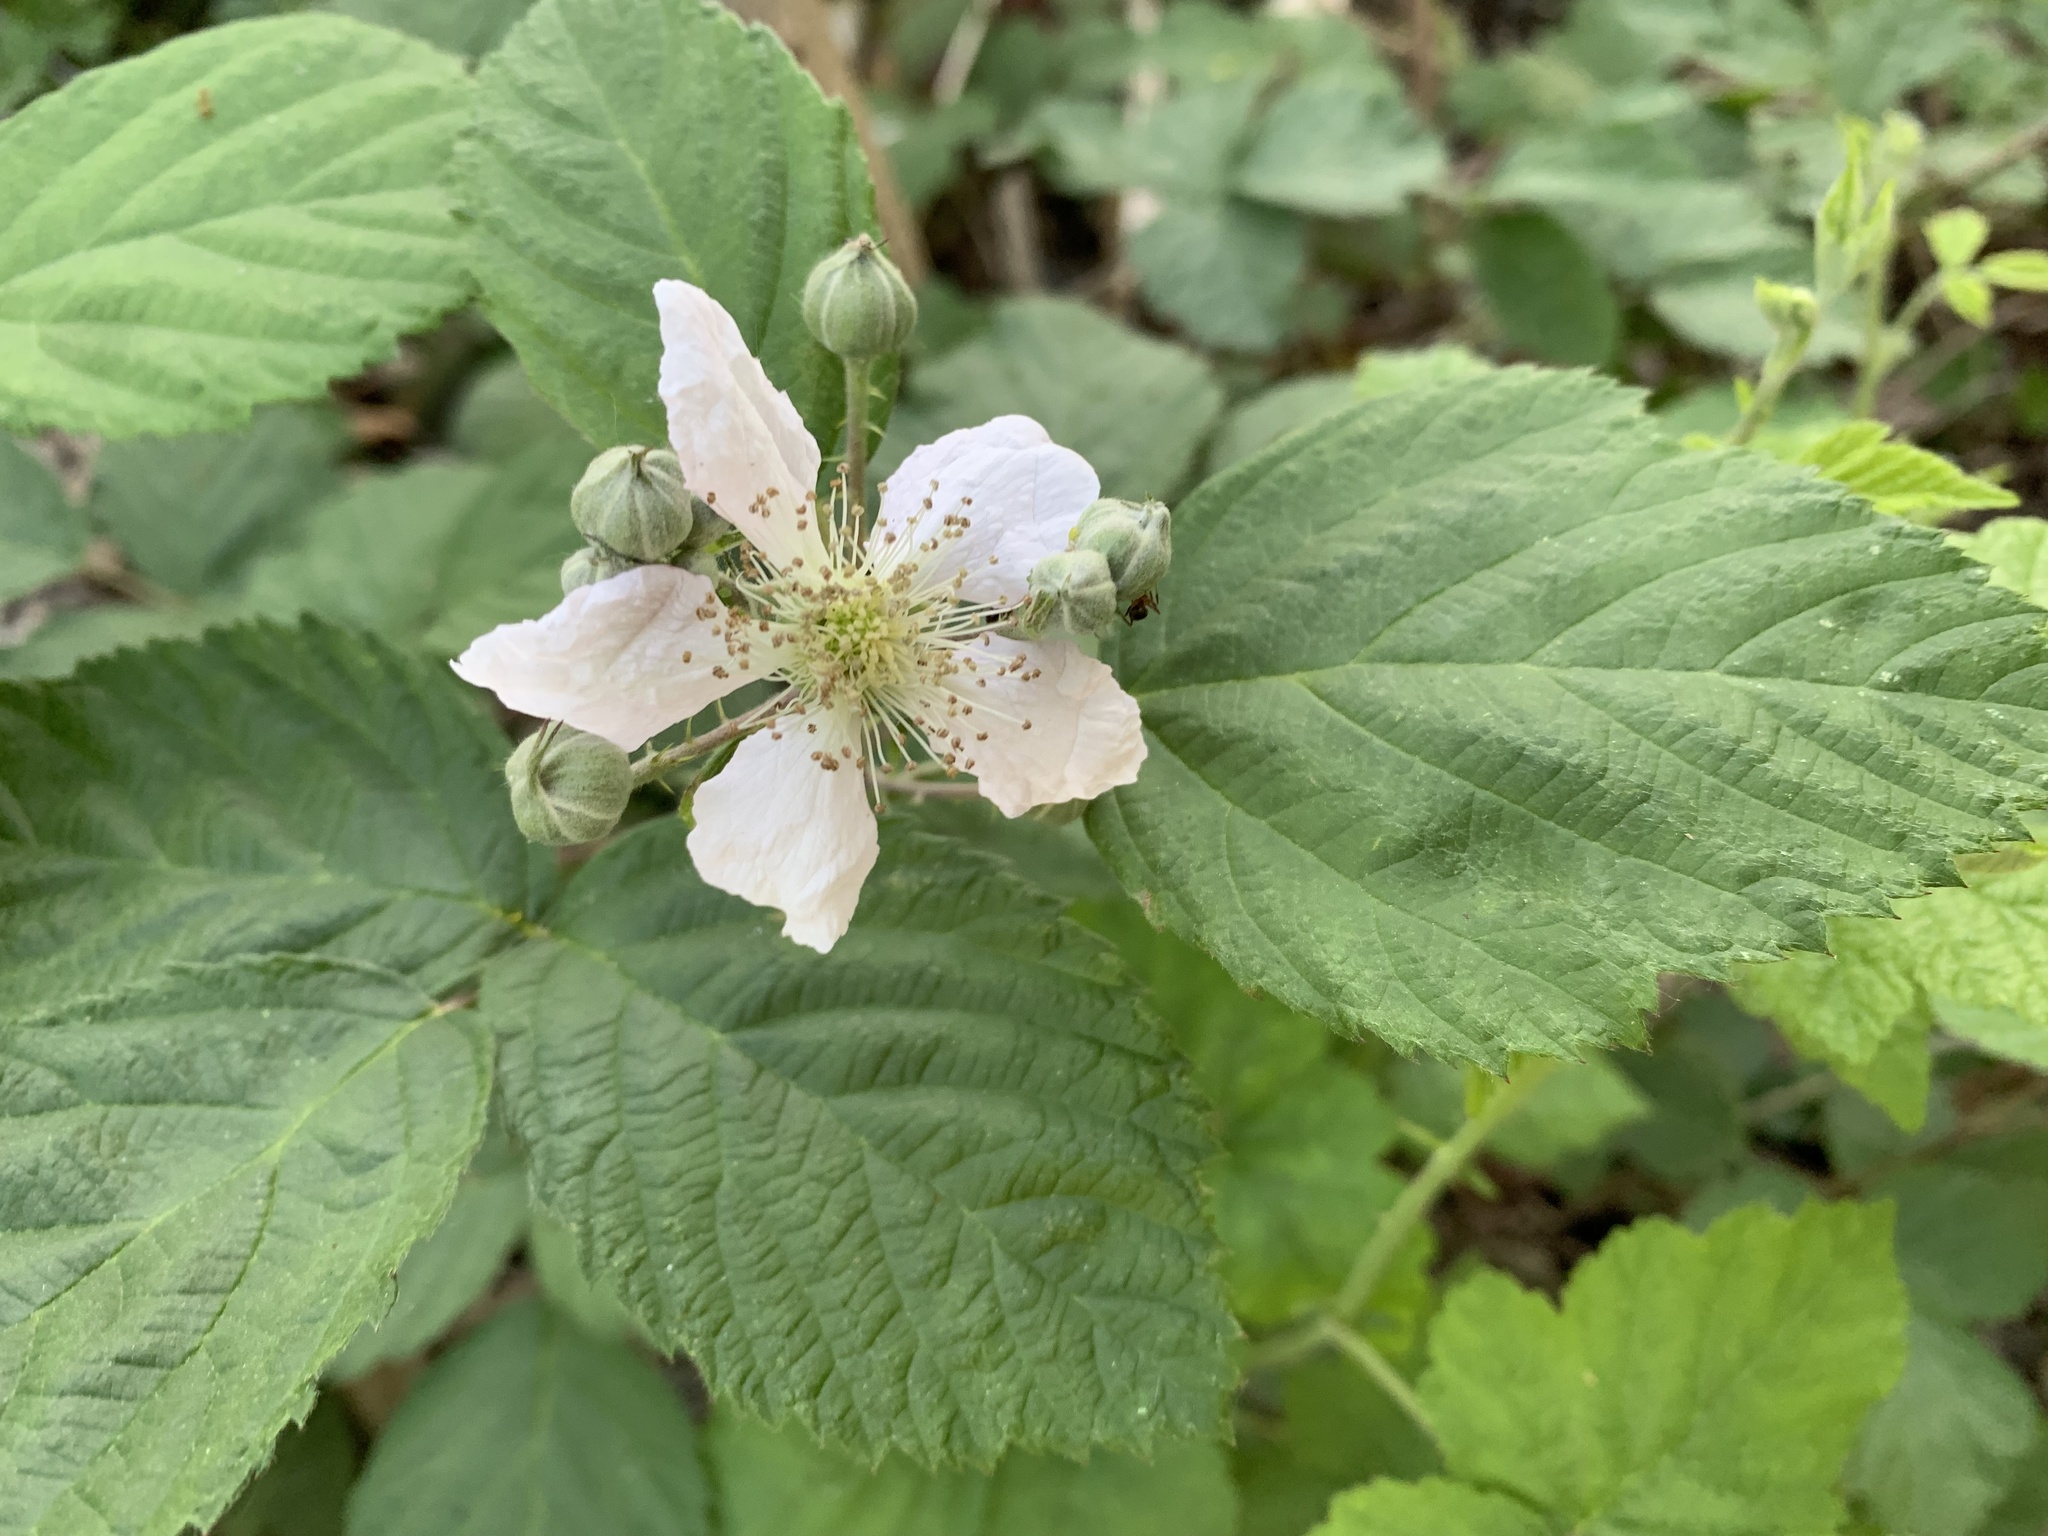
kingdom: Plantae
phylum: Tracheophyta
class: Magnoliopsida
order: Rosales
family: Rosaceae
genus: Rubus
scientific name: Rubus caesius
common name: Dewberry
